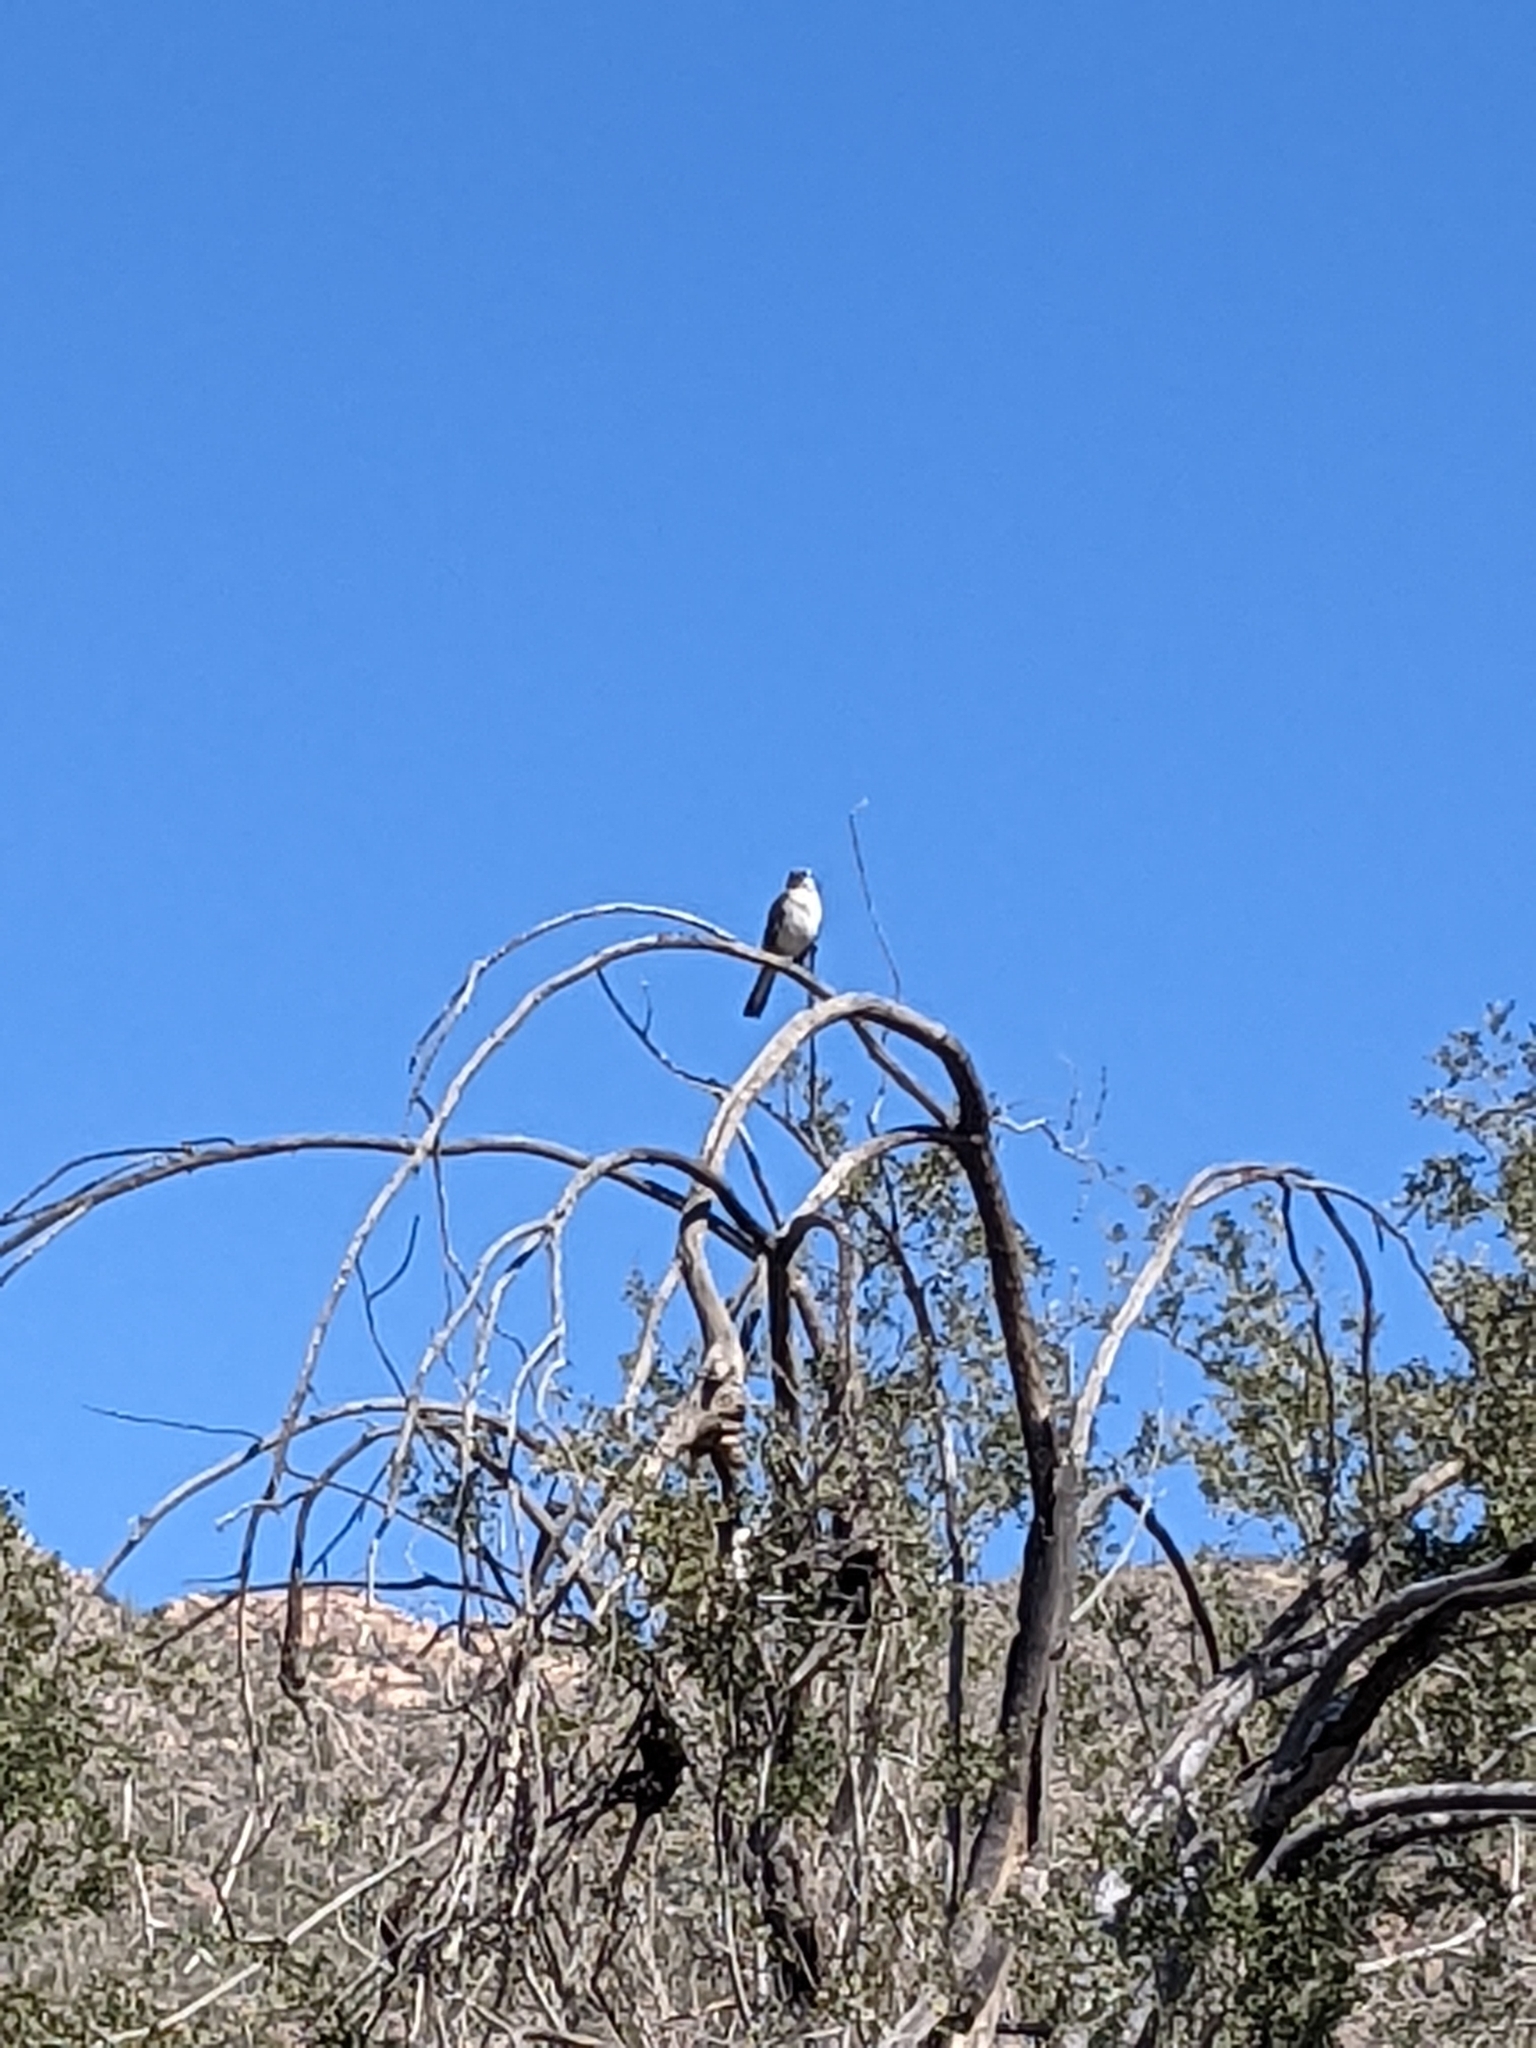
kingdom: Animalia
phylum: Chordata
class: Aves
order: Passeriformes
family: Mimidae
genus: Mimus
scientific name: Mimus polyglottos
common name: Northern mockingbird
